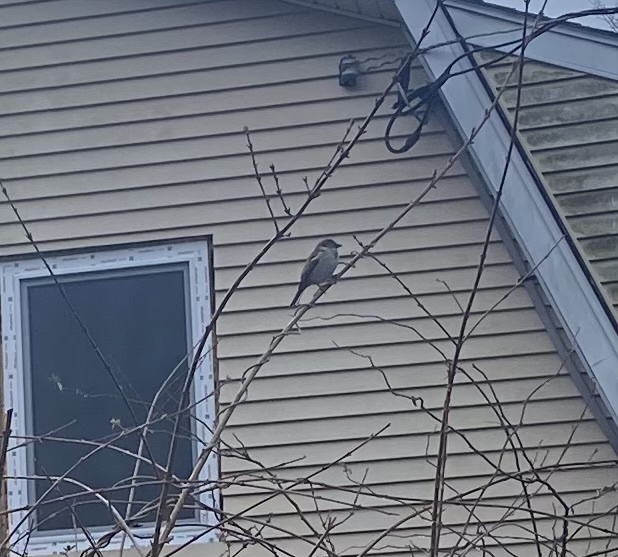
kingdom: Animalia
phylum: Chordata
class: Aves
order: Passeriformes
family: Passeridae
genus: Passer
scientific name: Passer domesticus
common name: House sparrow
